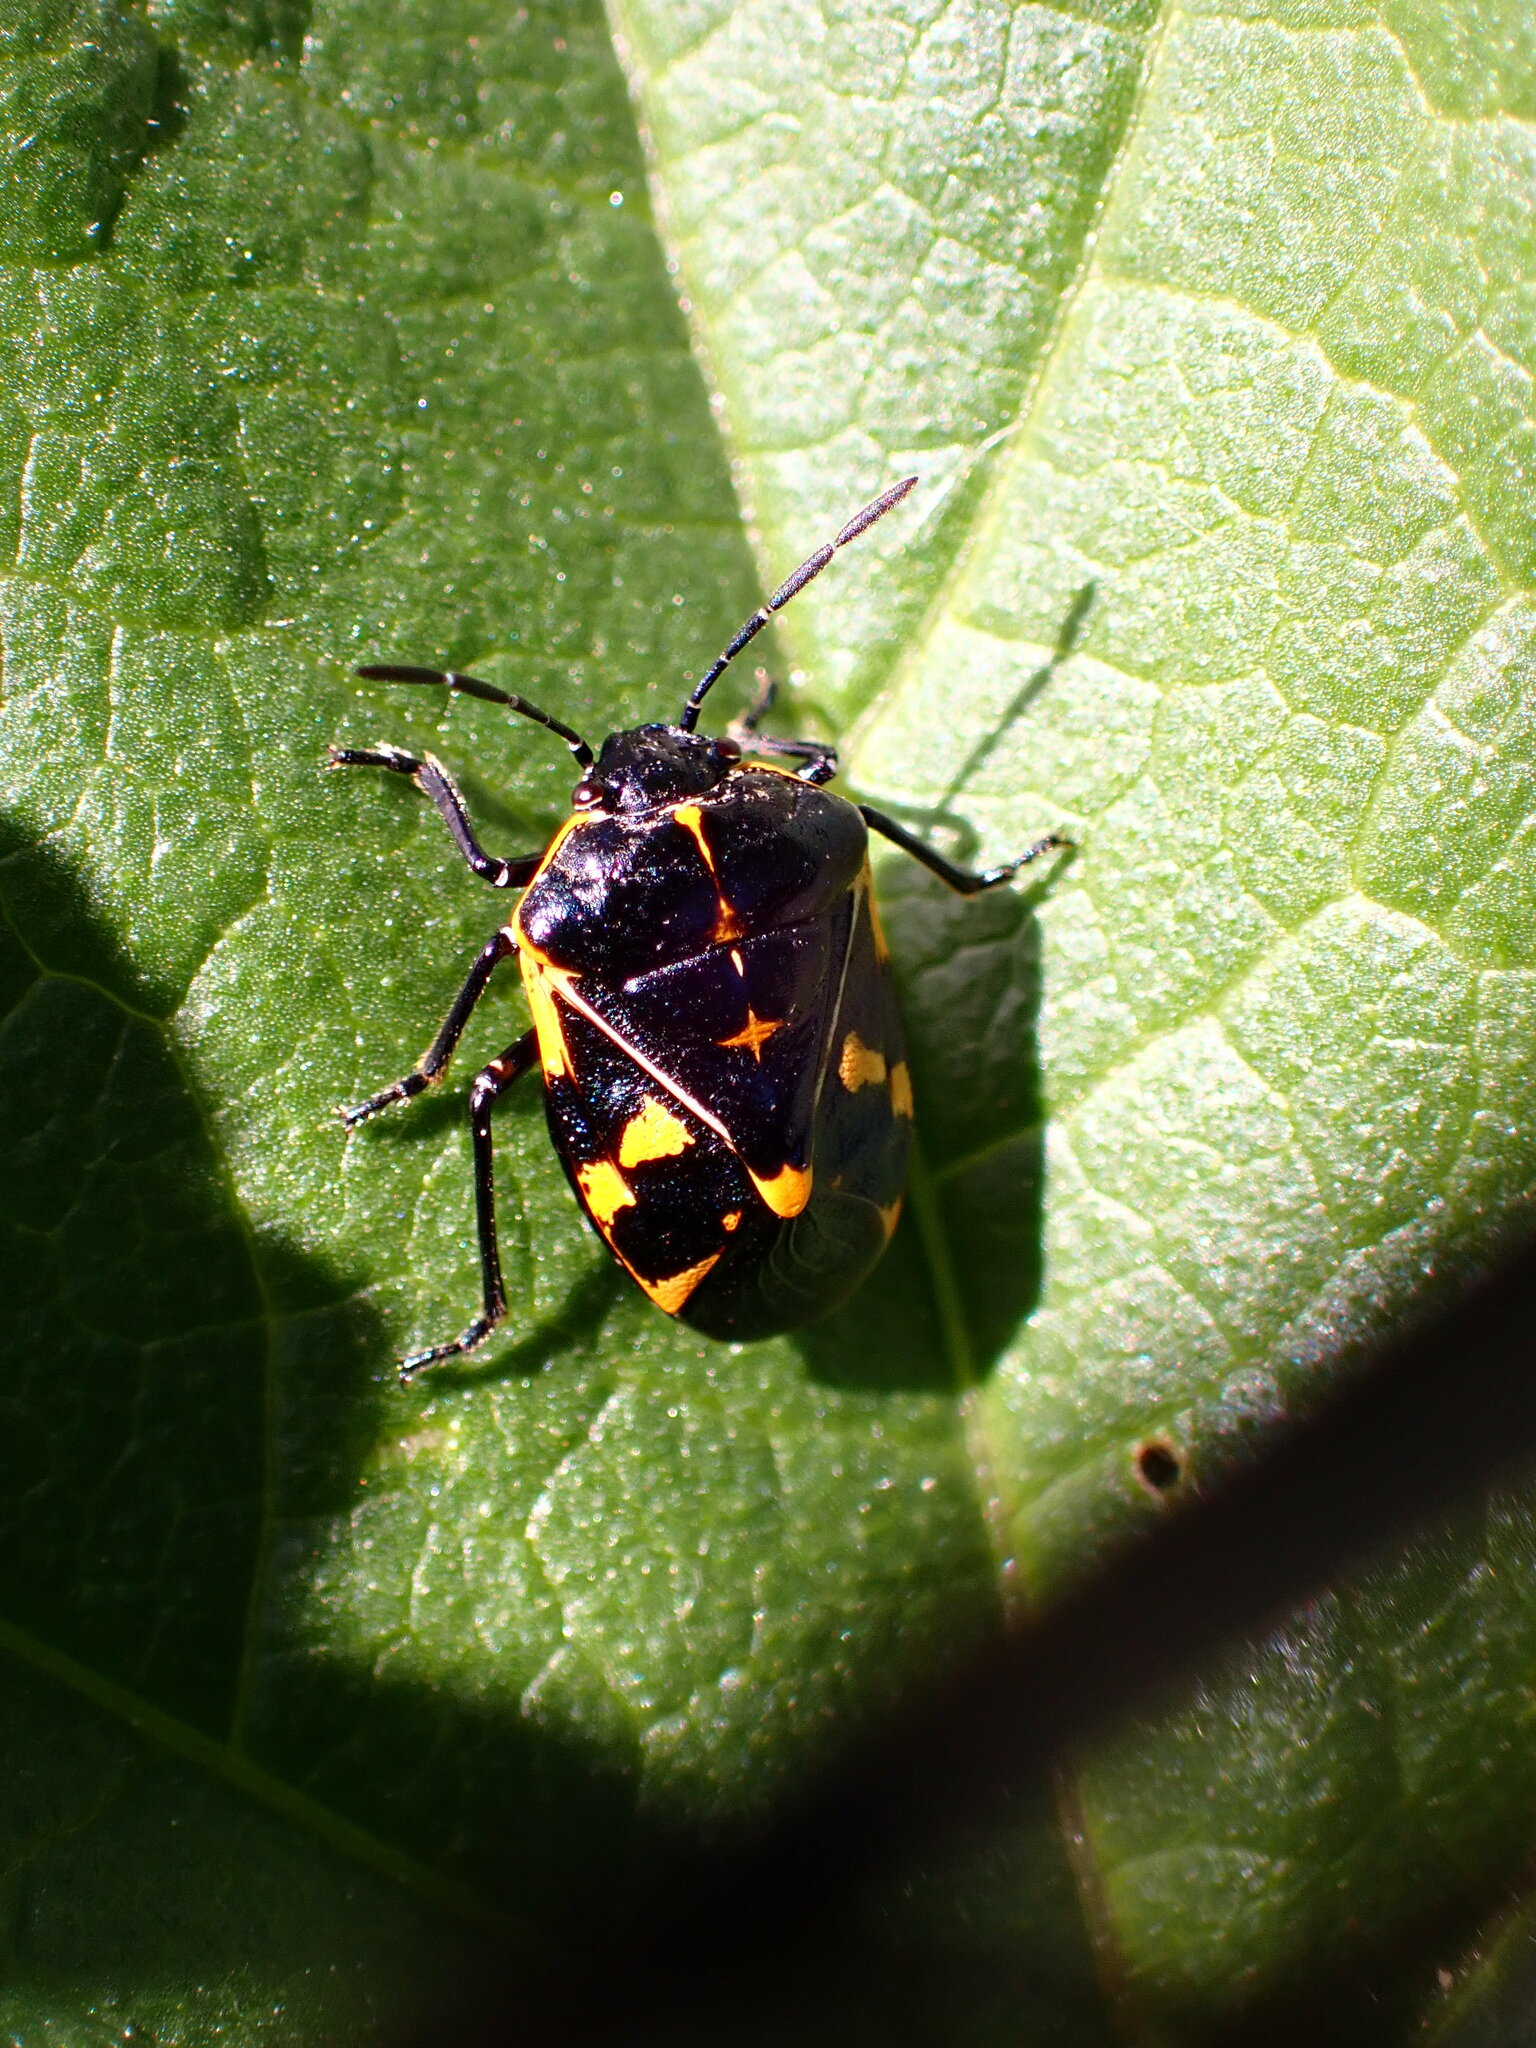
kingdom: Animalia
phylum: Arthropoda
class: Insecta
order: Hemiptera
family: Pentatomidae
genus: Murgantia
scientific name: Murgantia histrionica
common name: Harlequin bug
